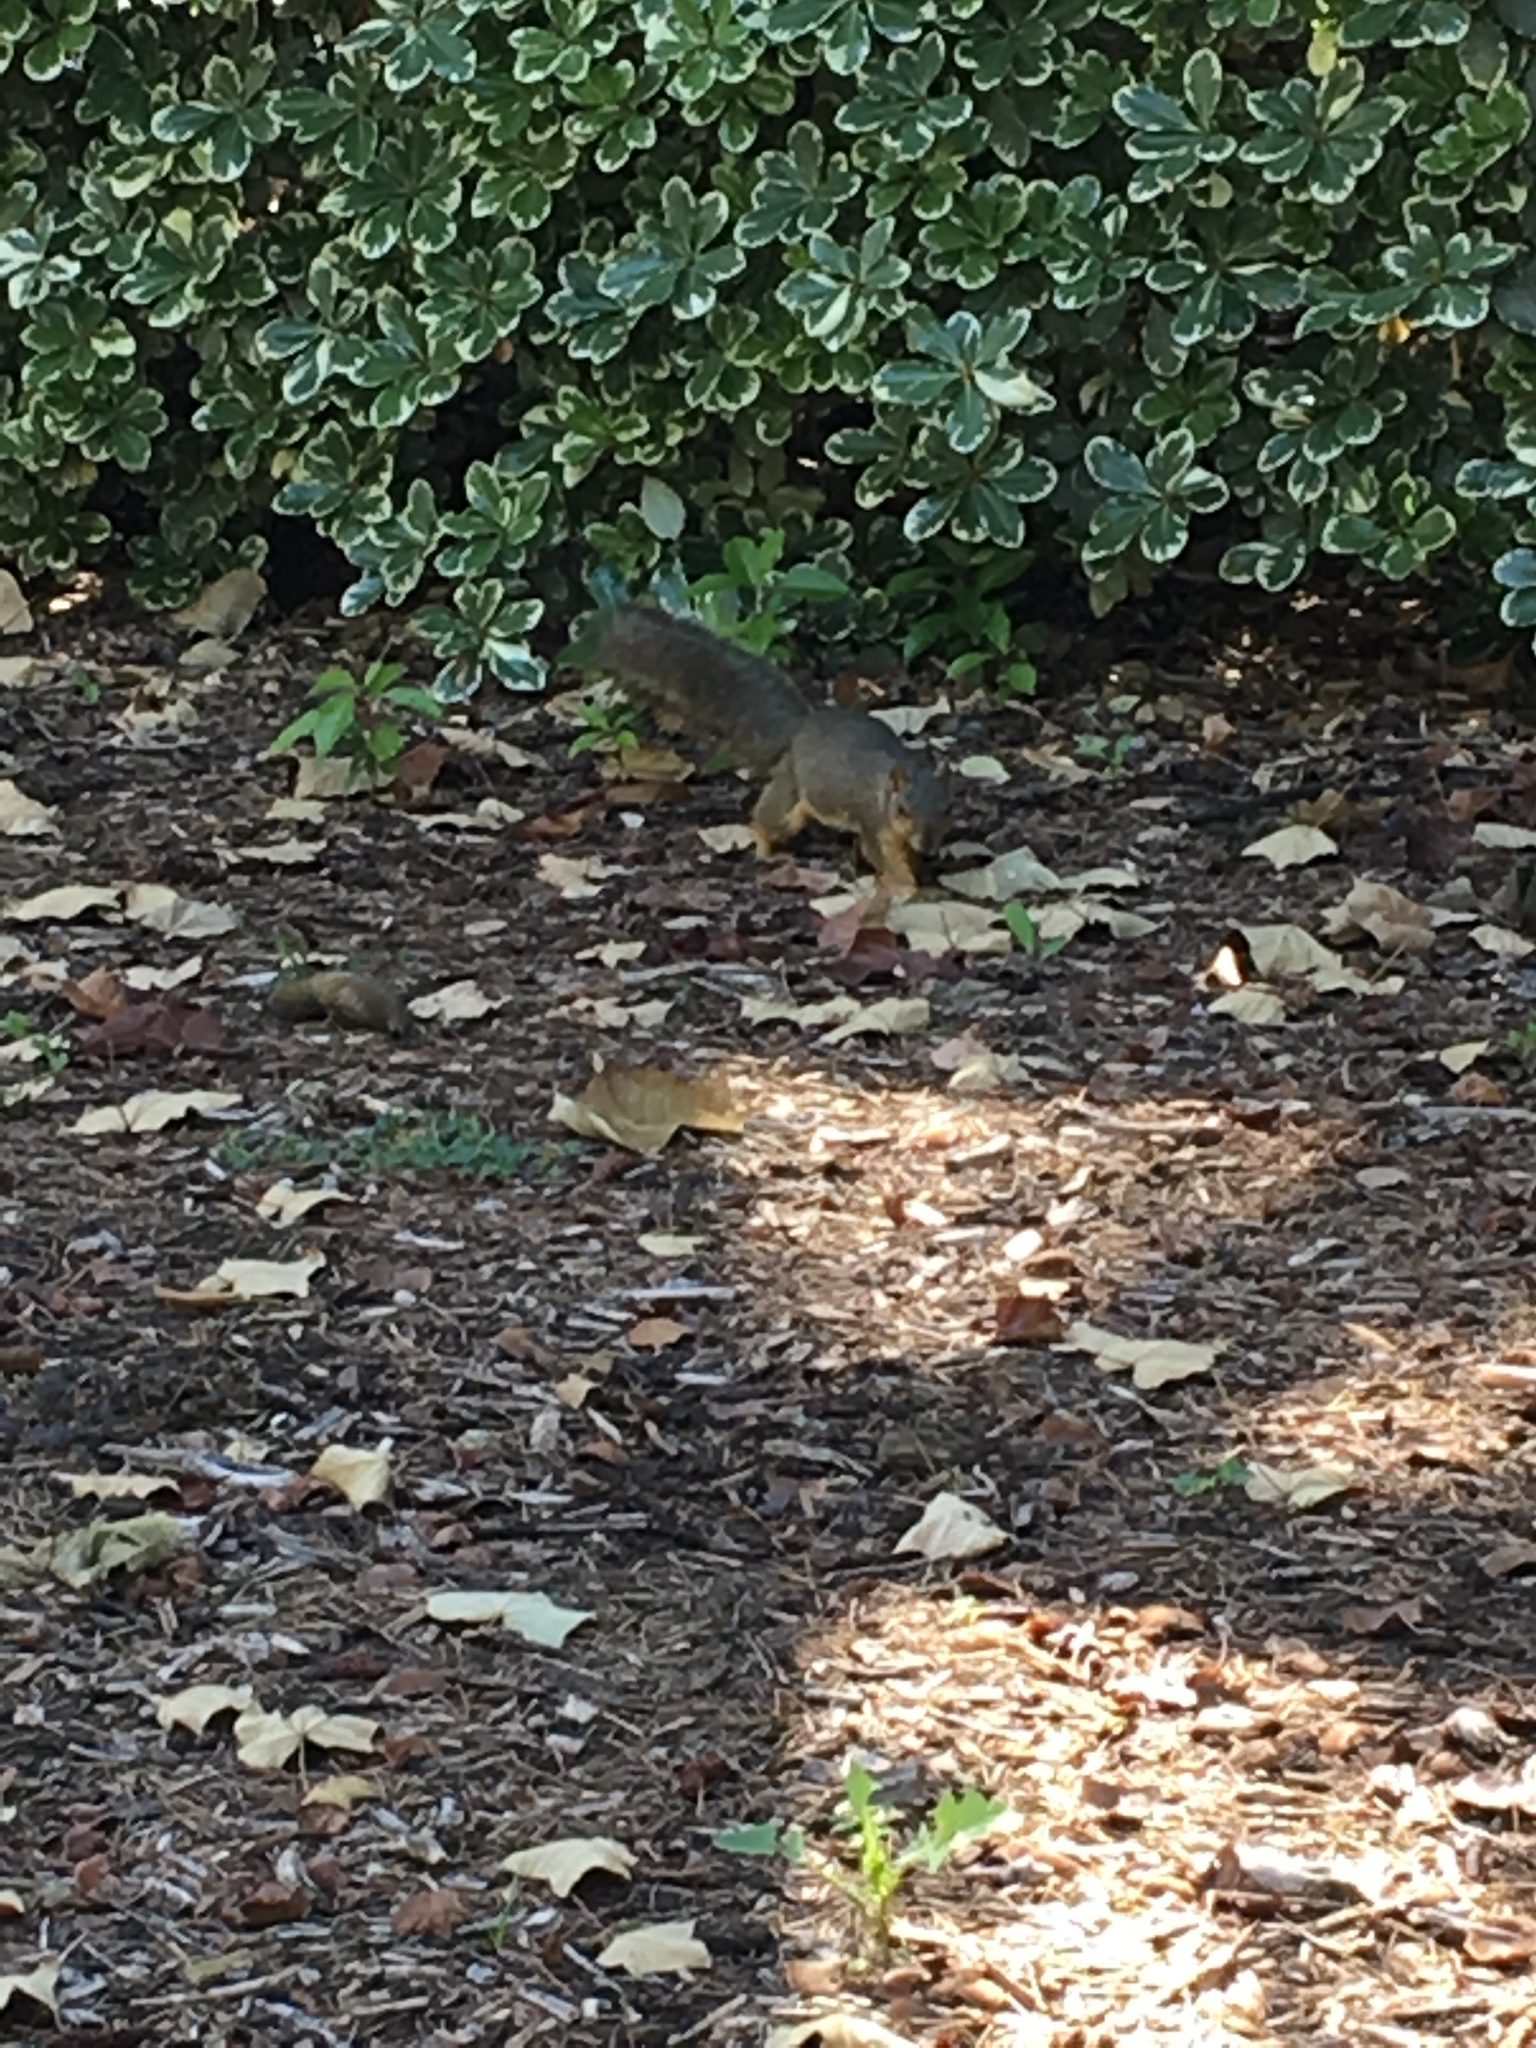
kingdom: Animalia
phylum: Chordata
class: Mammalia
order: Rodentia
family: Sciuridae
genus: Sciurus
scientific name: Sciurus niger
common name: Fox squirrel
